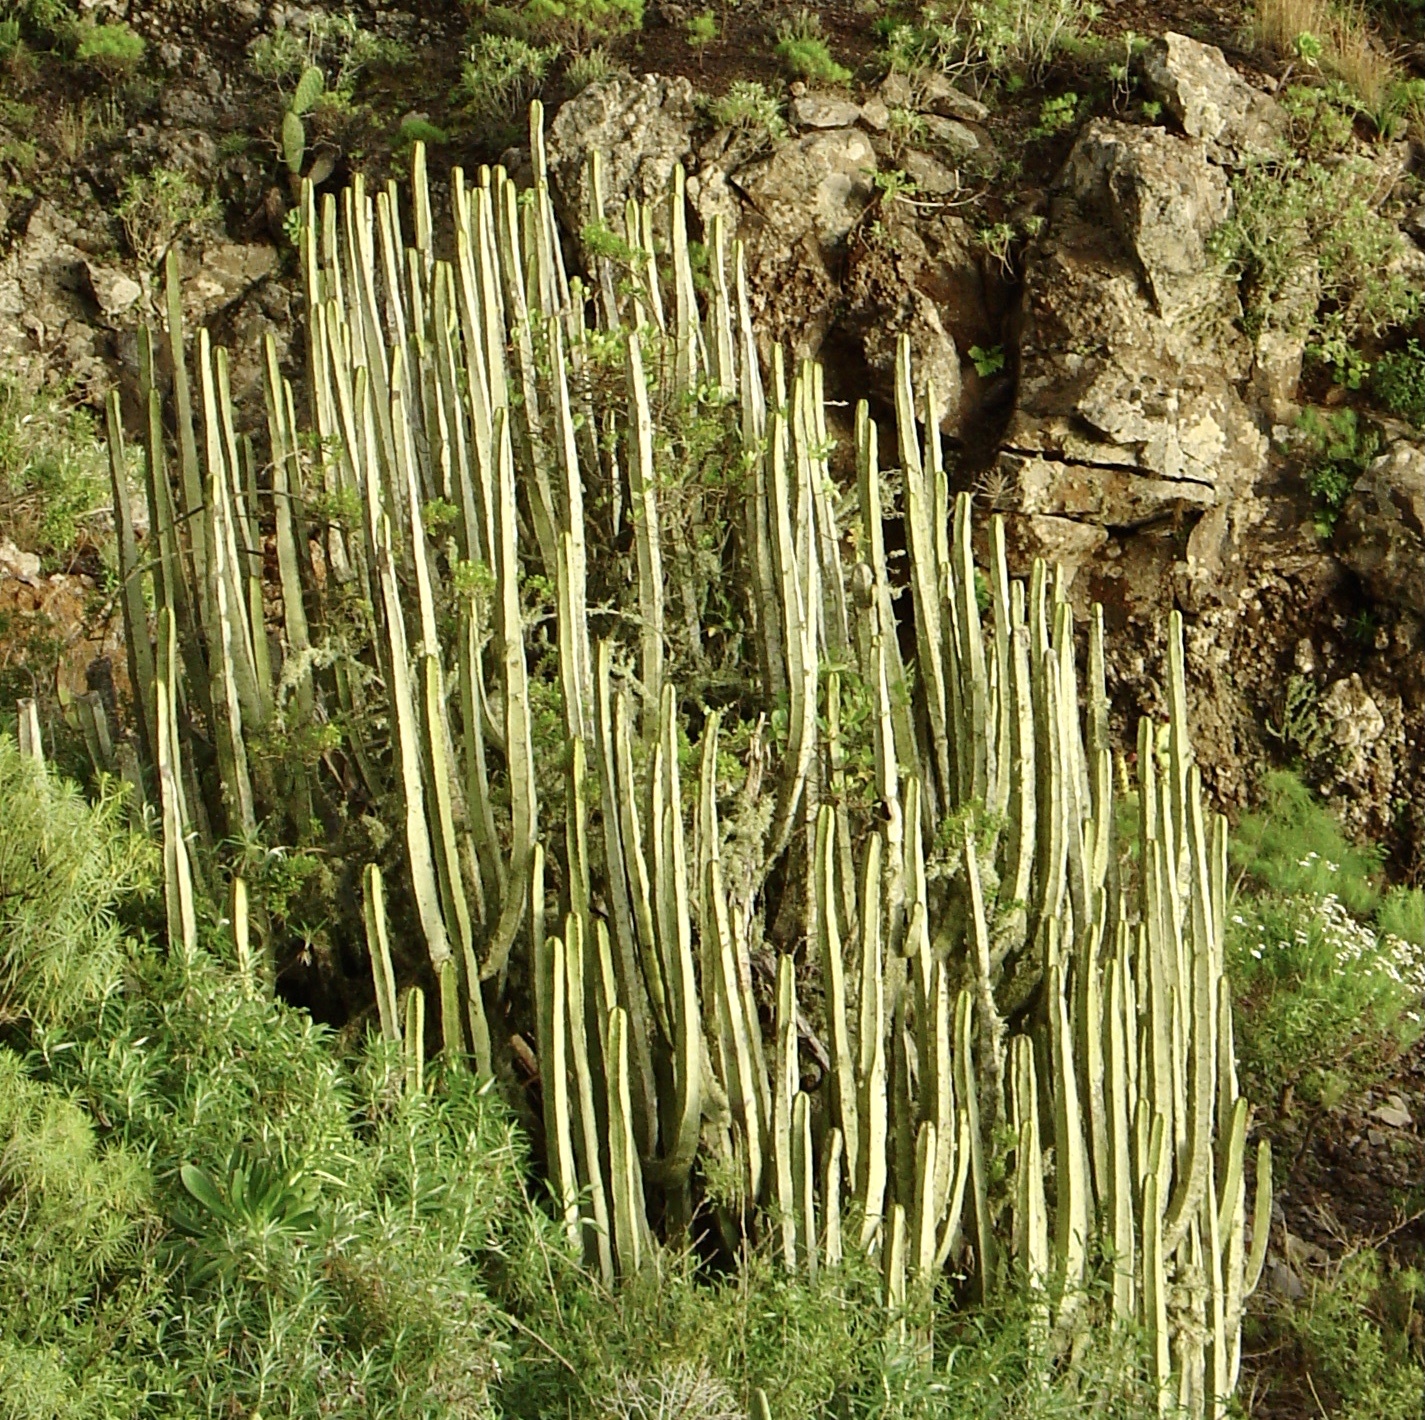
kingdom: Plantae
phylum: Tracheophyta
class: Magnoliopsida
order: Malpighiales
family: Euphorbiaceae
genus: Euphorbia
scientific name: Euphorbia canariensis
